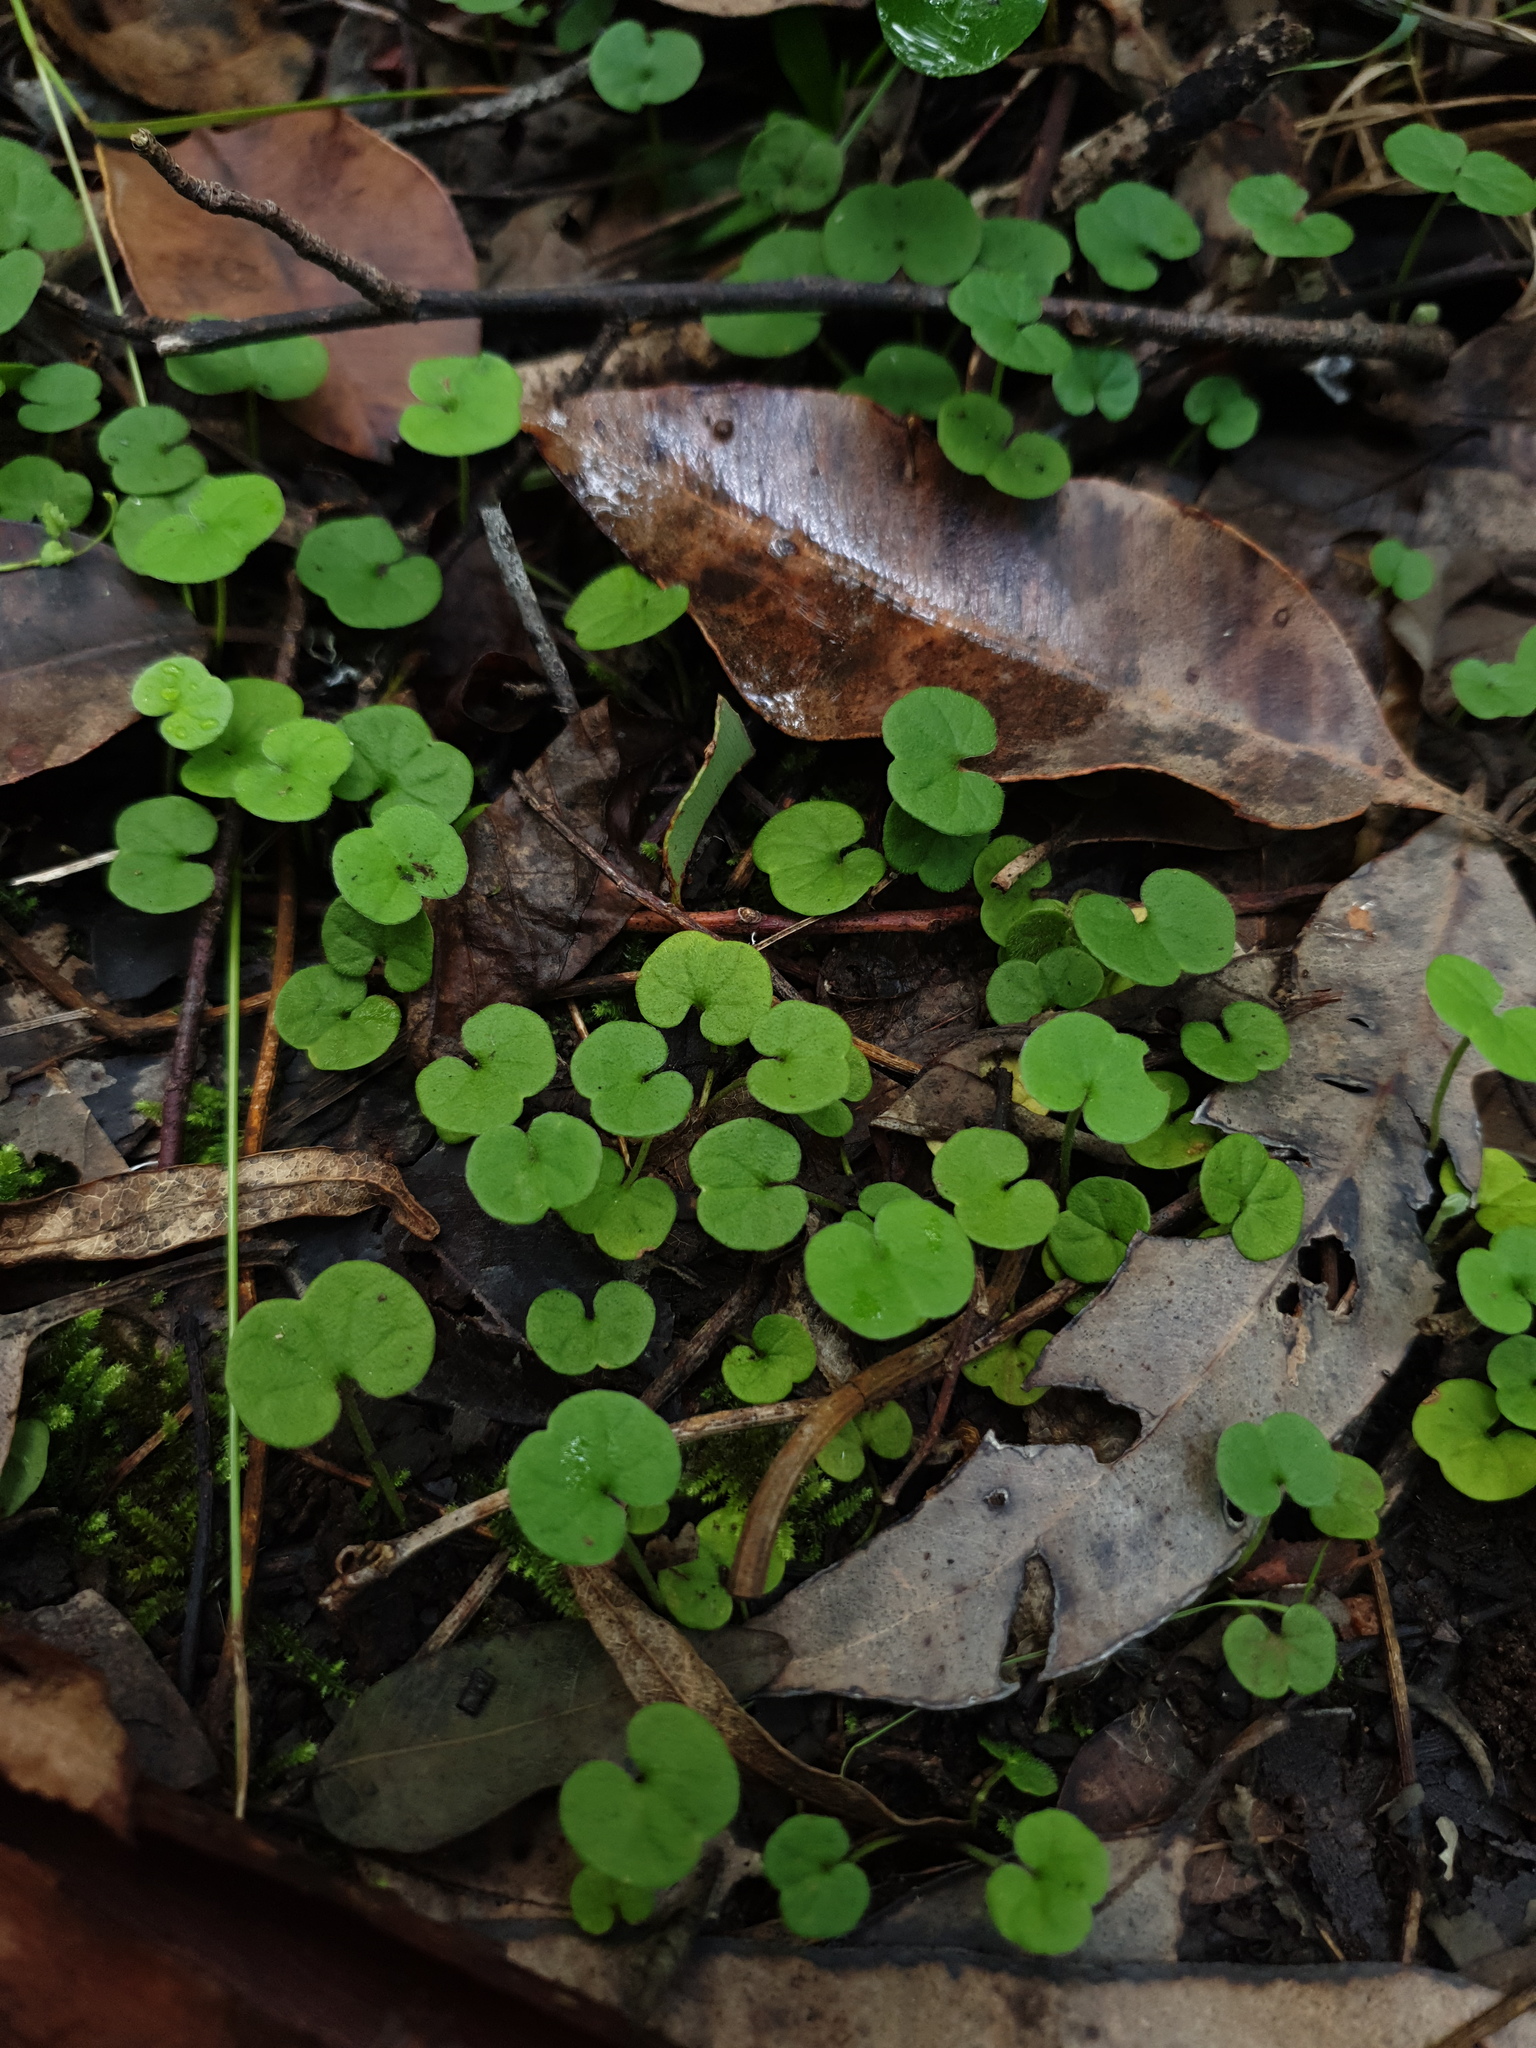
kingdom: Plantae
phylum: Tracheophyta
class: Magnoliopsida
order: Solanales
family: Convolvulaceae
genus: Dichondra
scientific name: Dichondra repens
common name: Kidneyweed
